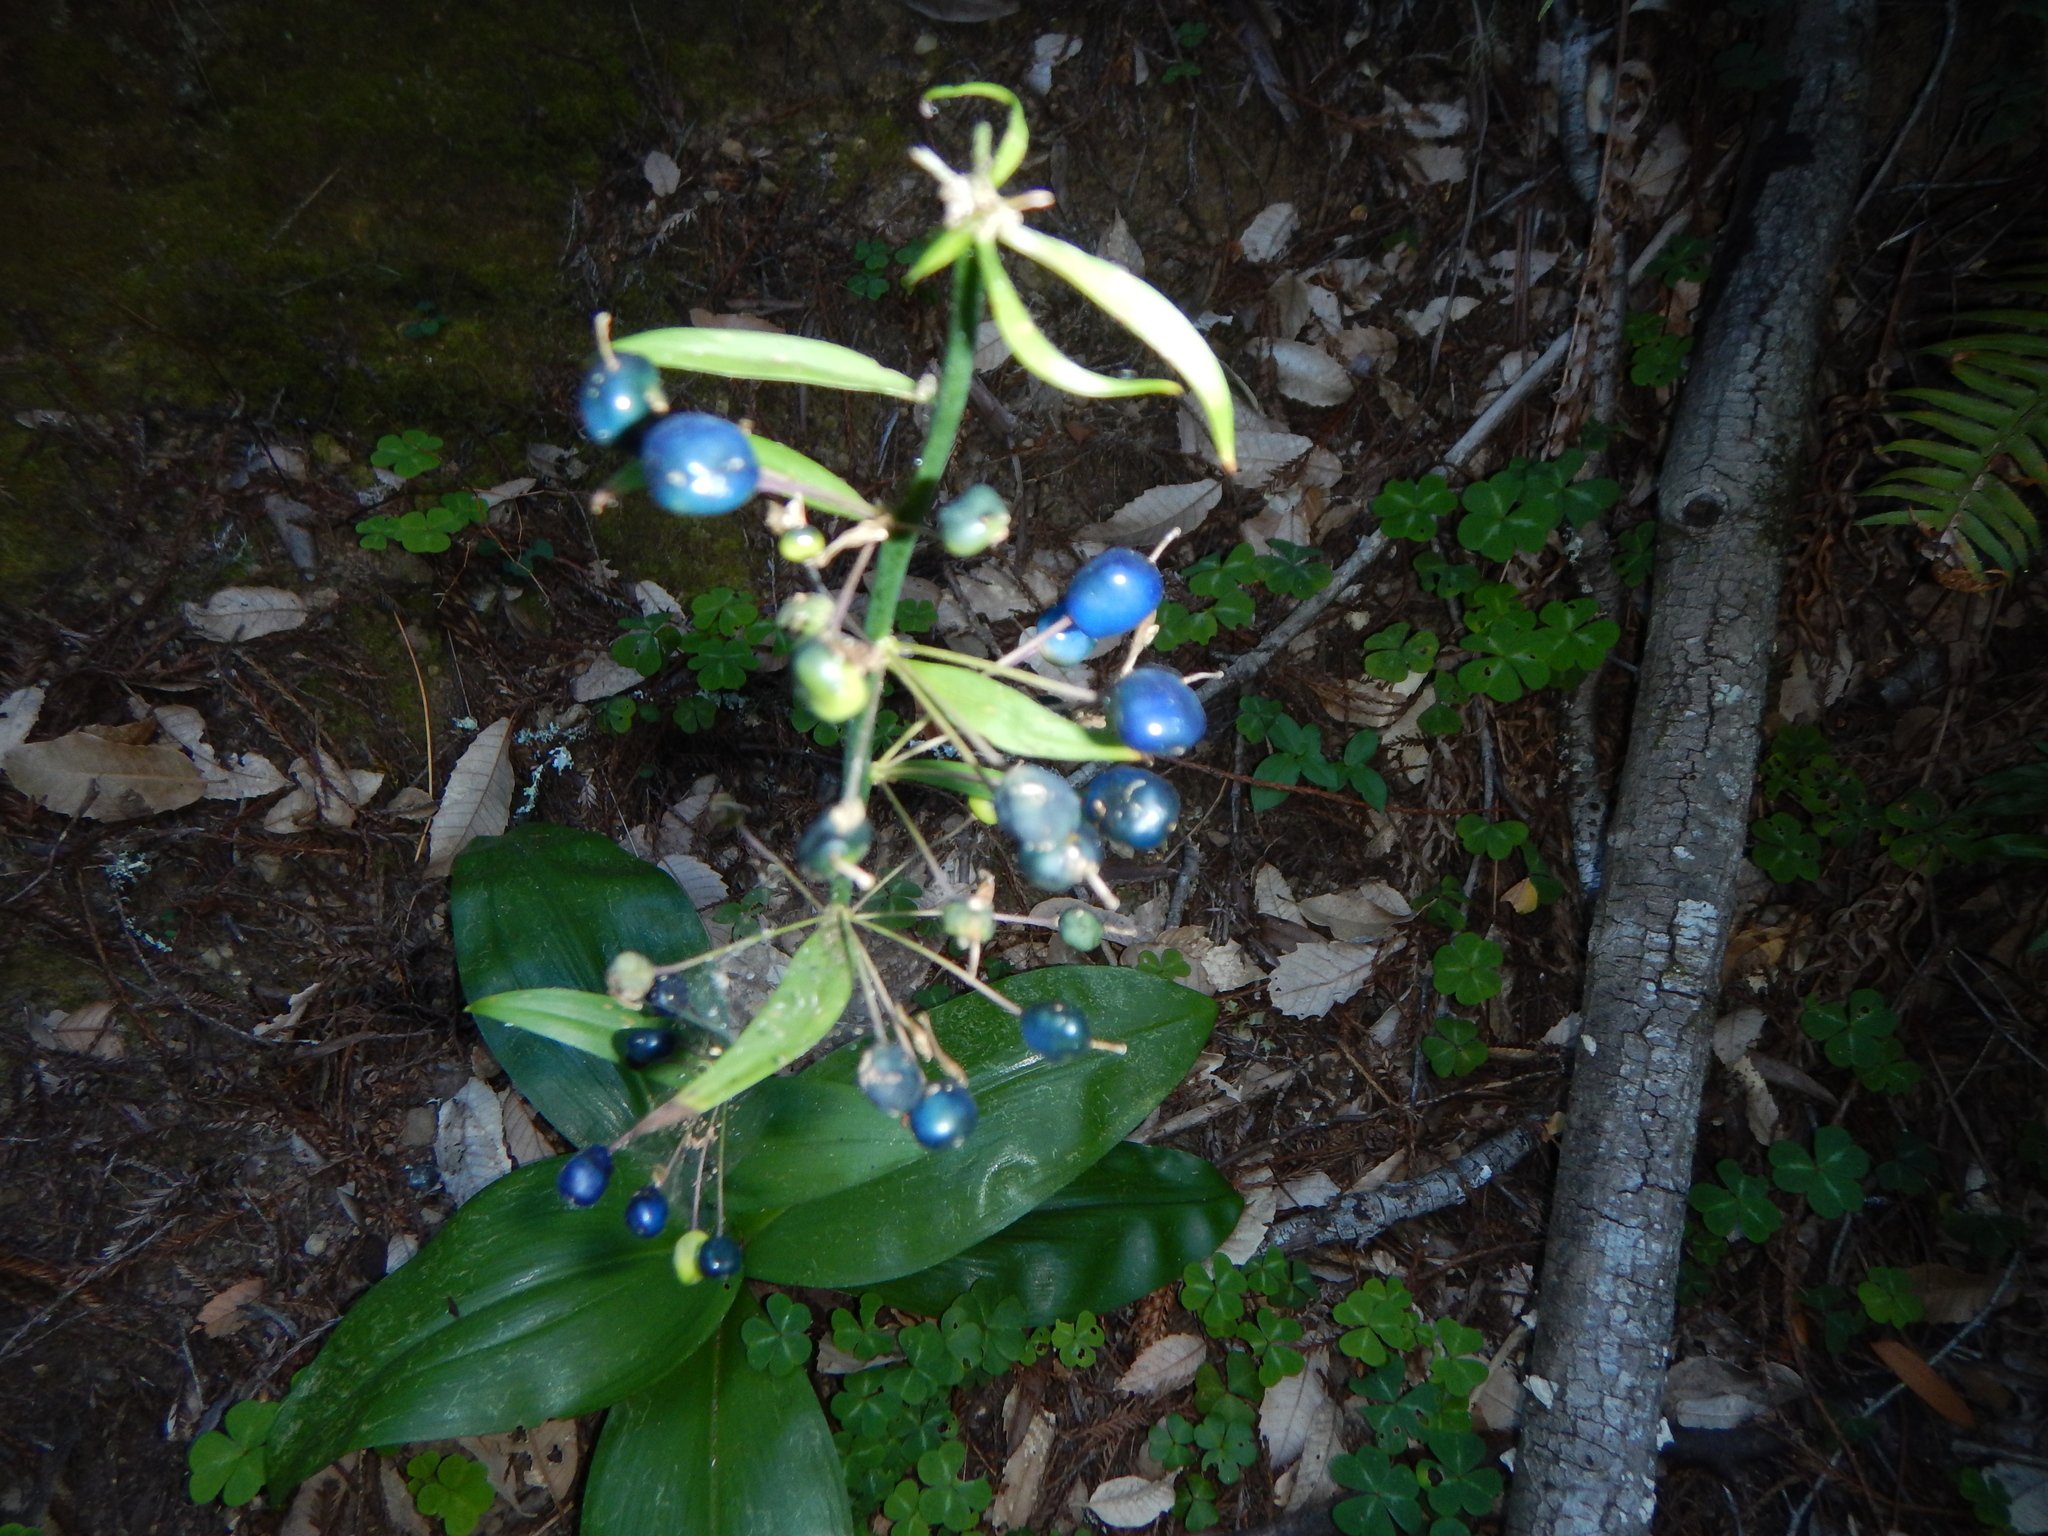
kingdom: Plantae
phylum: Tracheophyta
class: Liliopsida
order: Liliales
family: Liliaceae
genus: Clintonia
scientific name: Clintonia andrewsiana
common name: Red clintonia
